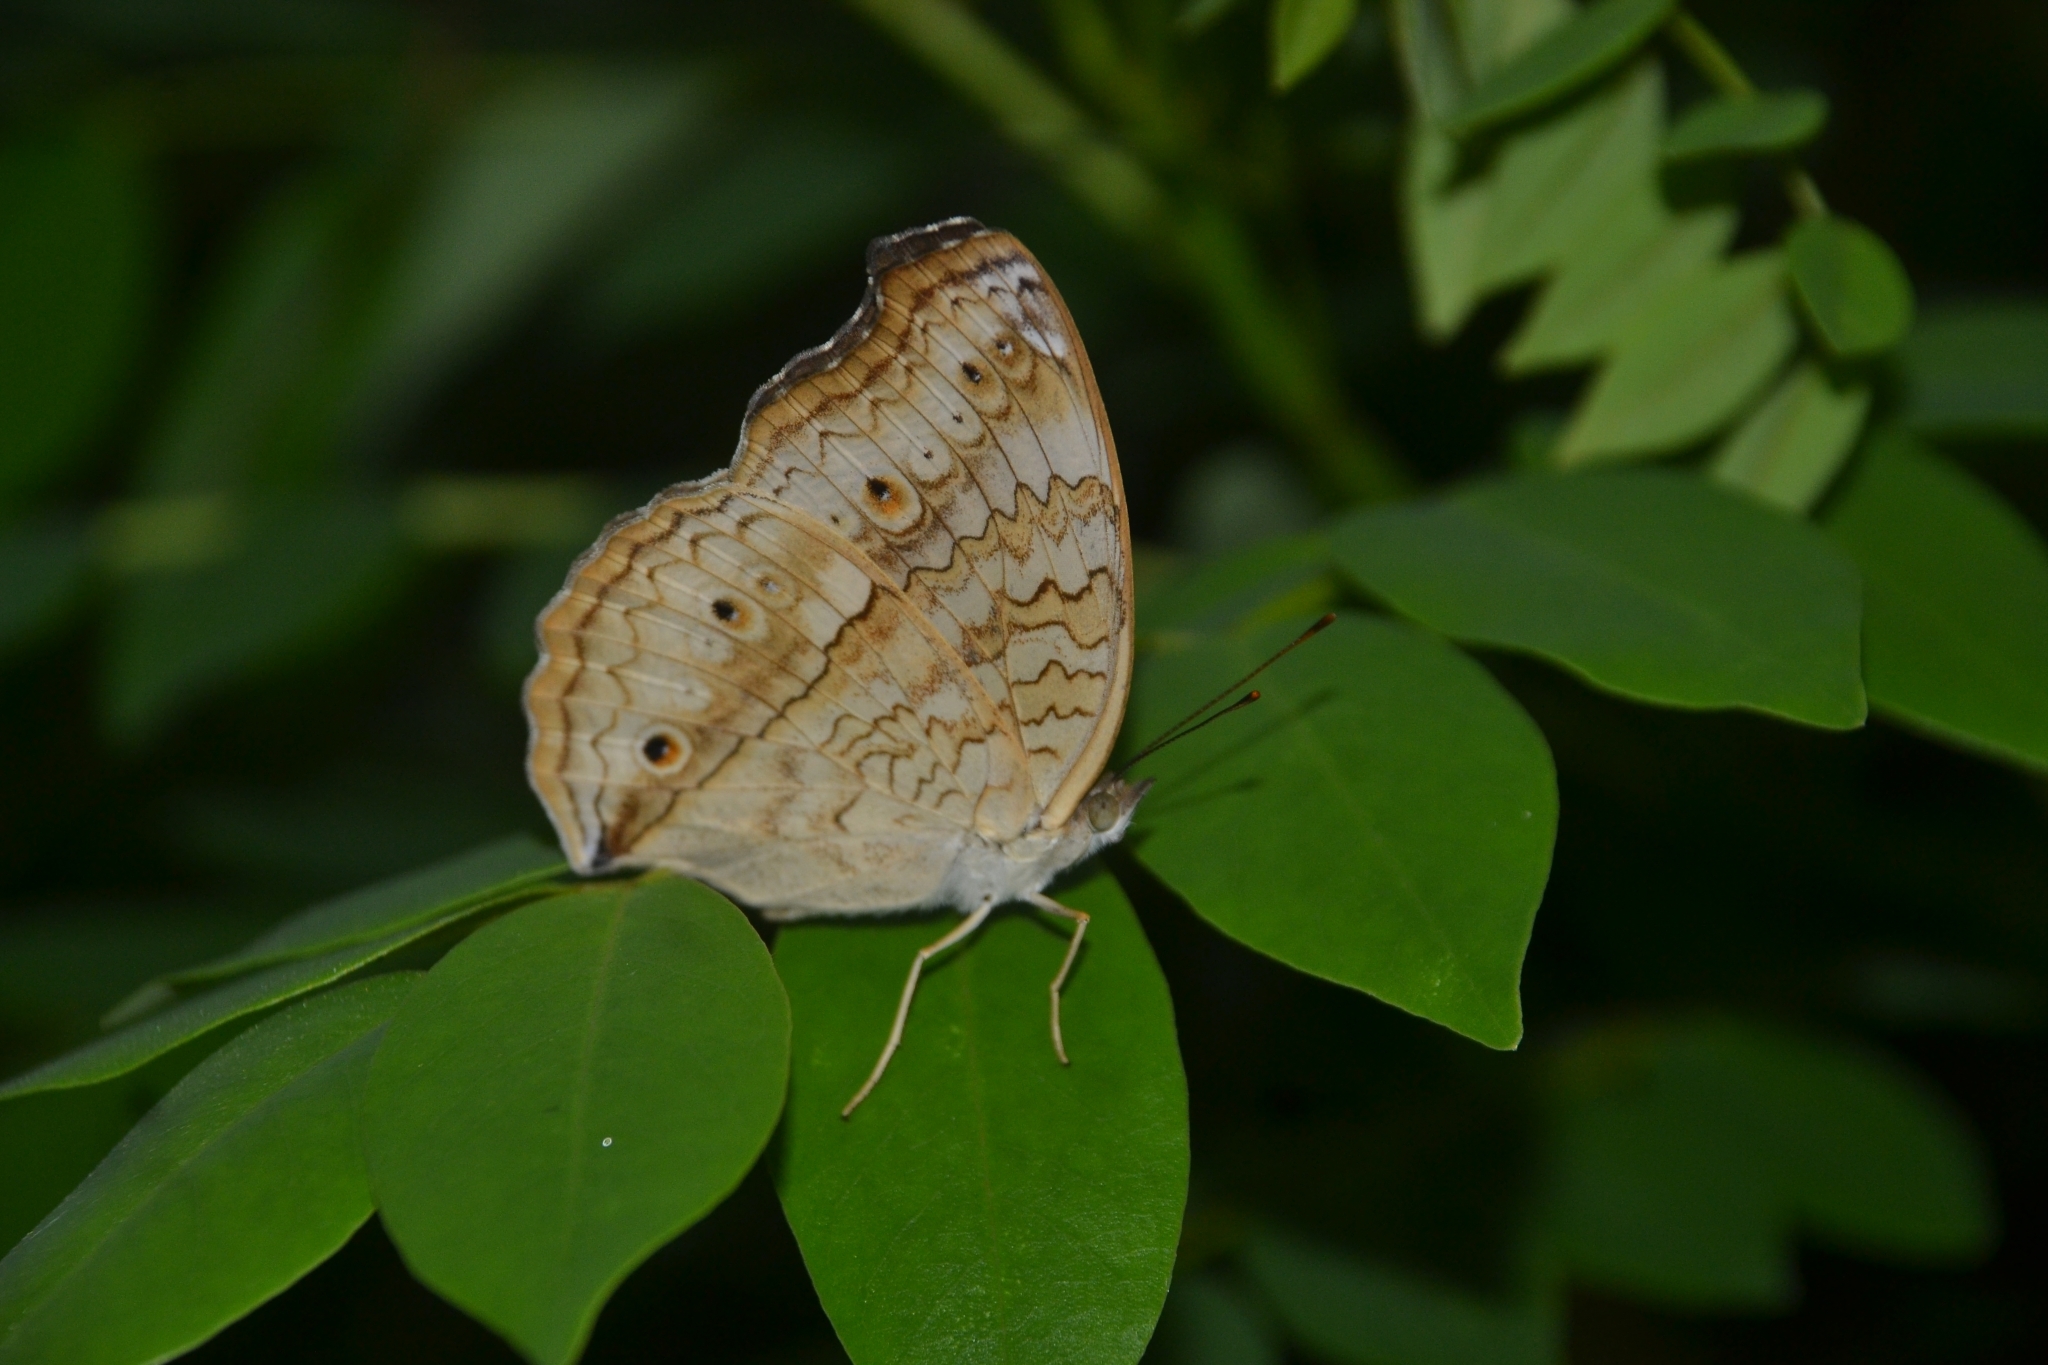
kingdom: Animalia
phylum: Arthropoda
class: Insecta
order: Lepidoptera
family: Nymphalidae
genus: Junonia
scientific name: Junonia atlites
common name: Grey pansy
